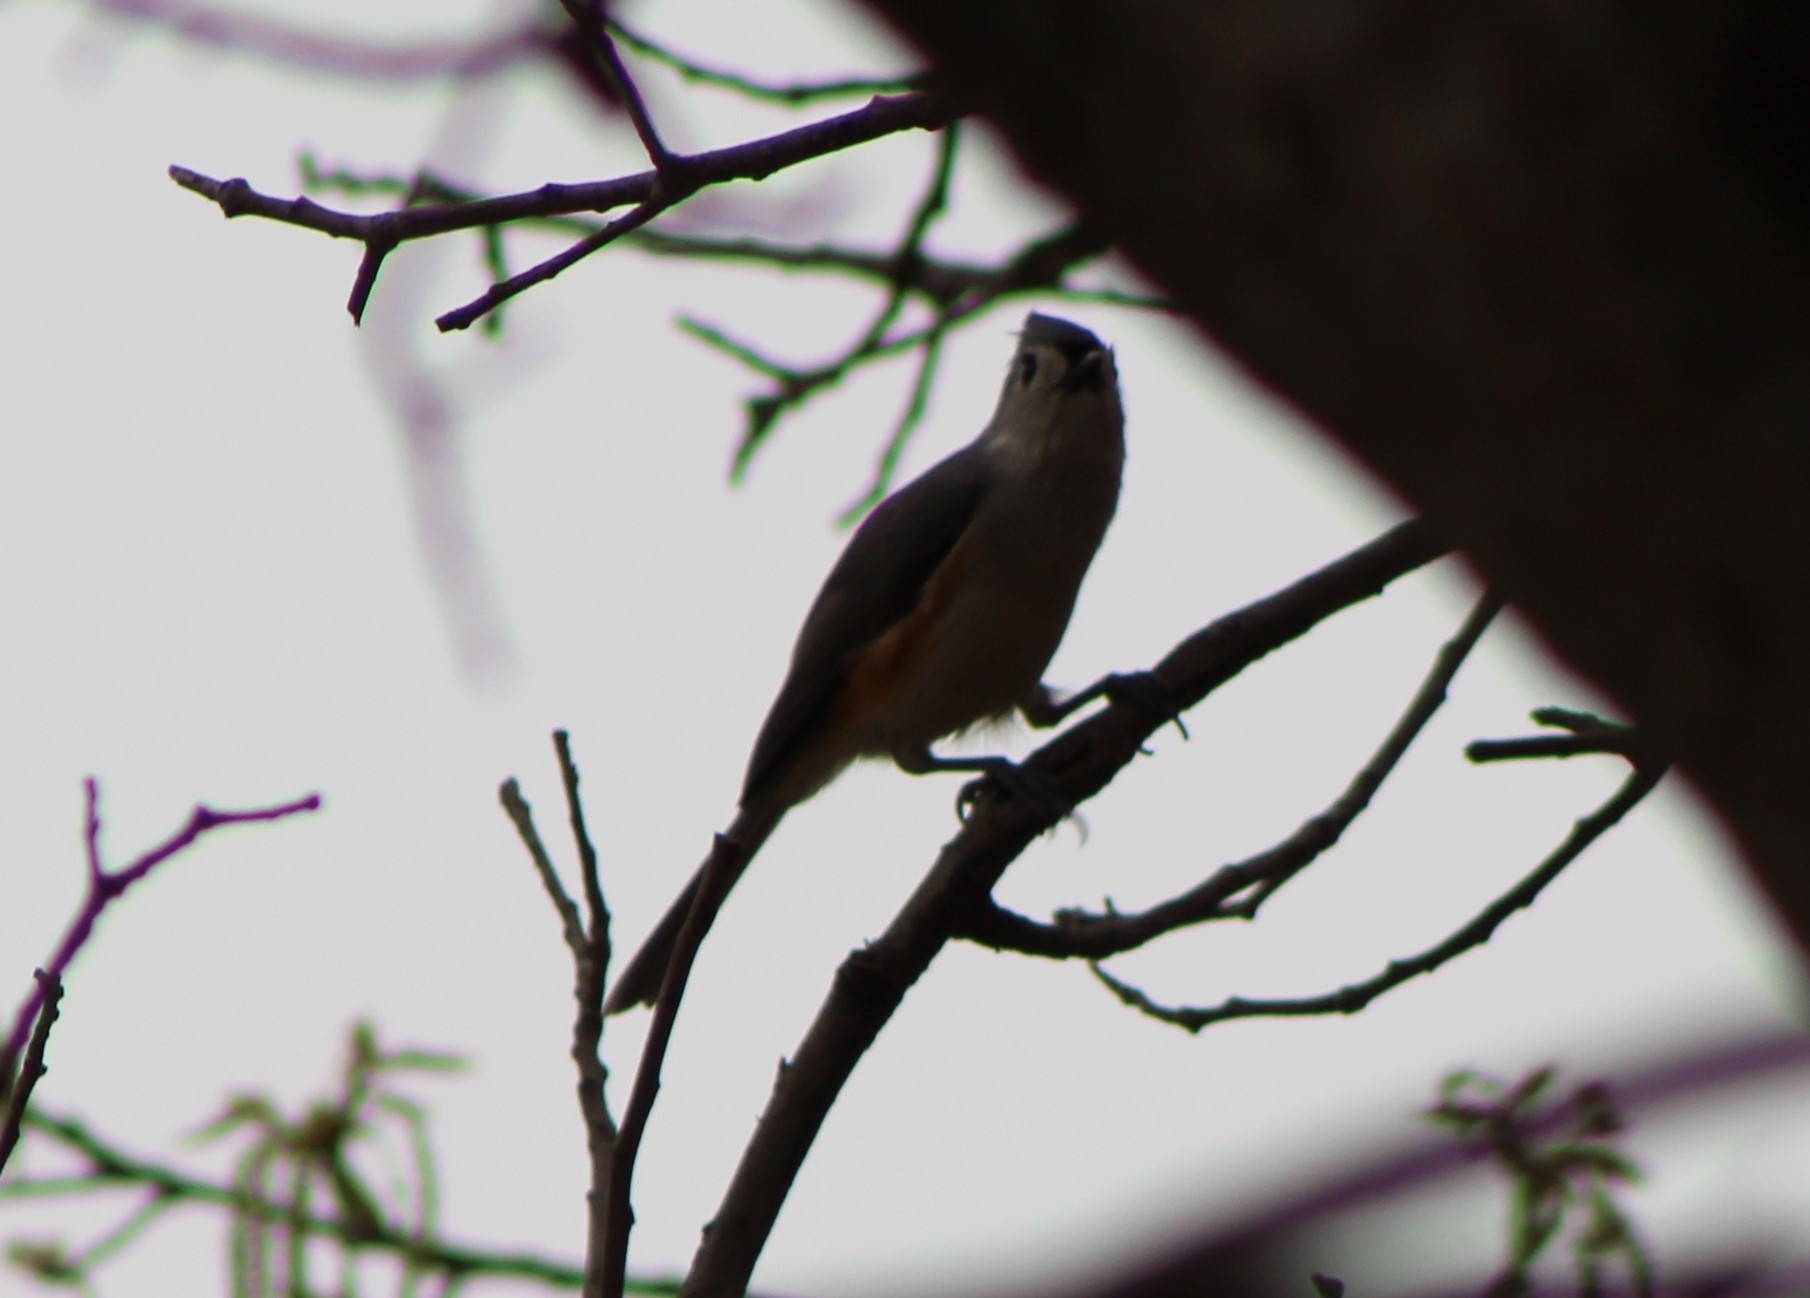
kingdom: Animalia
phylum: Chordata
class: Aves
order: Passeriformes
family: Paridae
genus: Baeolophus
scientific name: Baeolophus bicolor
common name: Tufted titmouse
